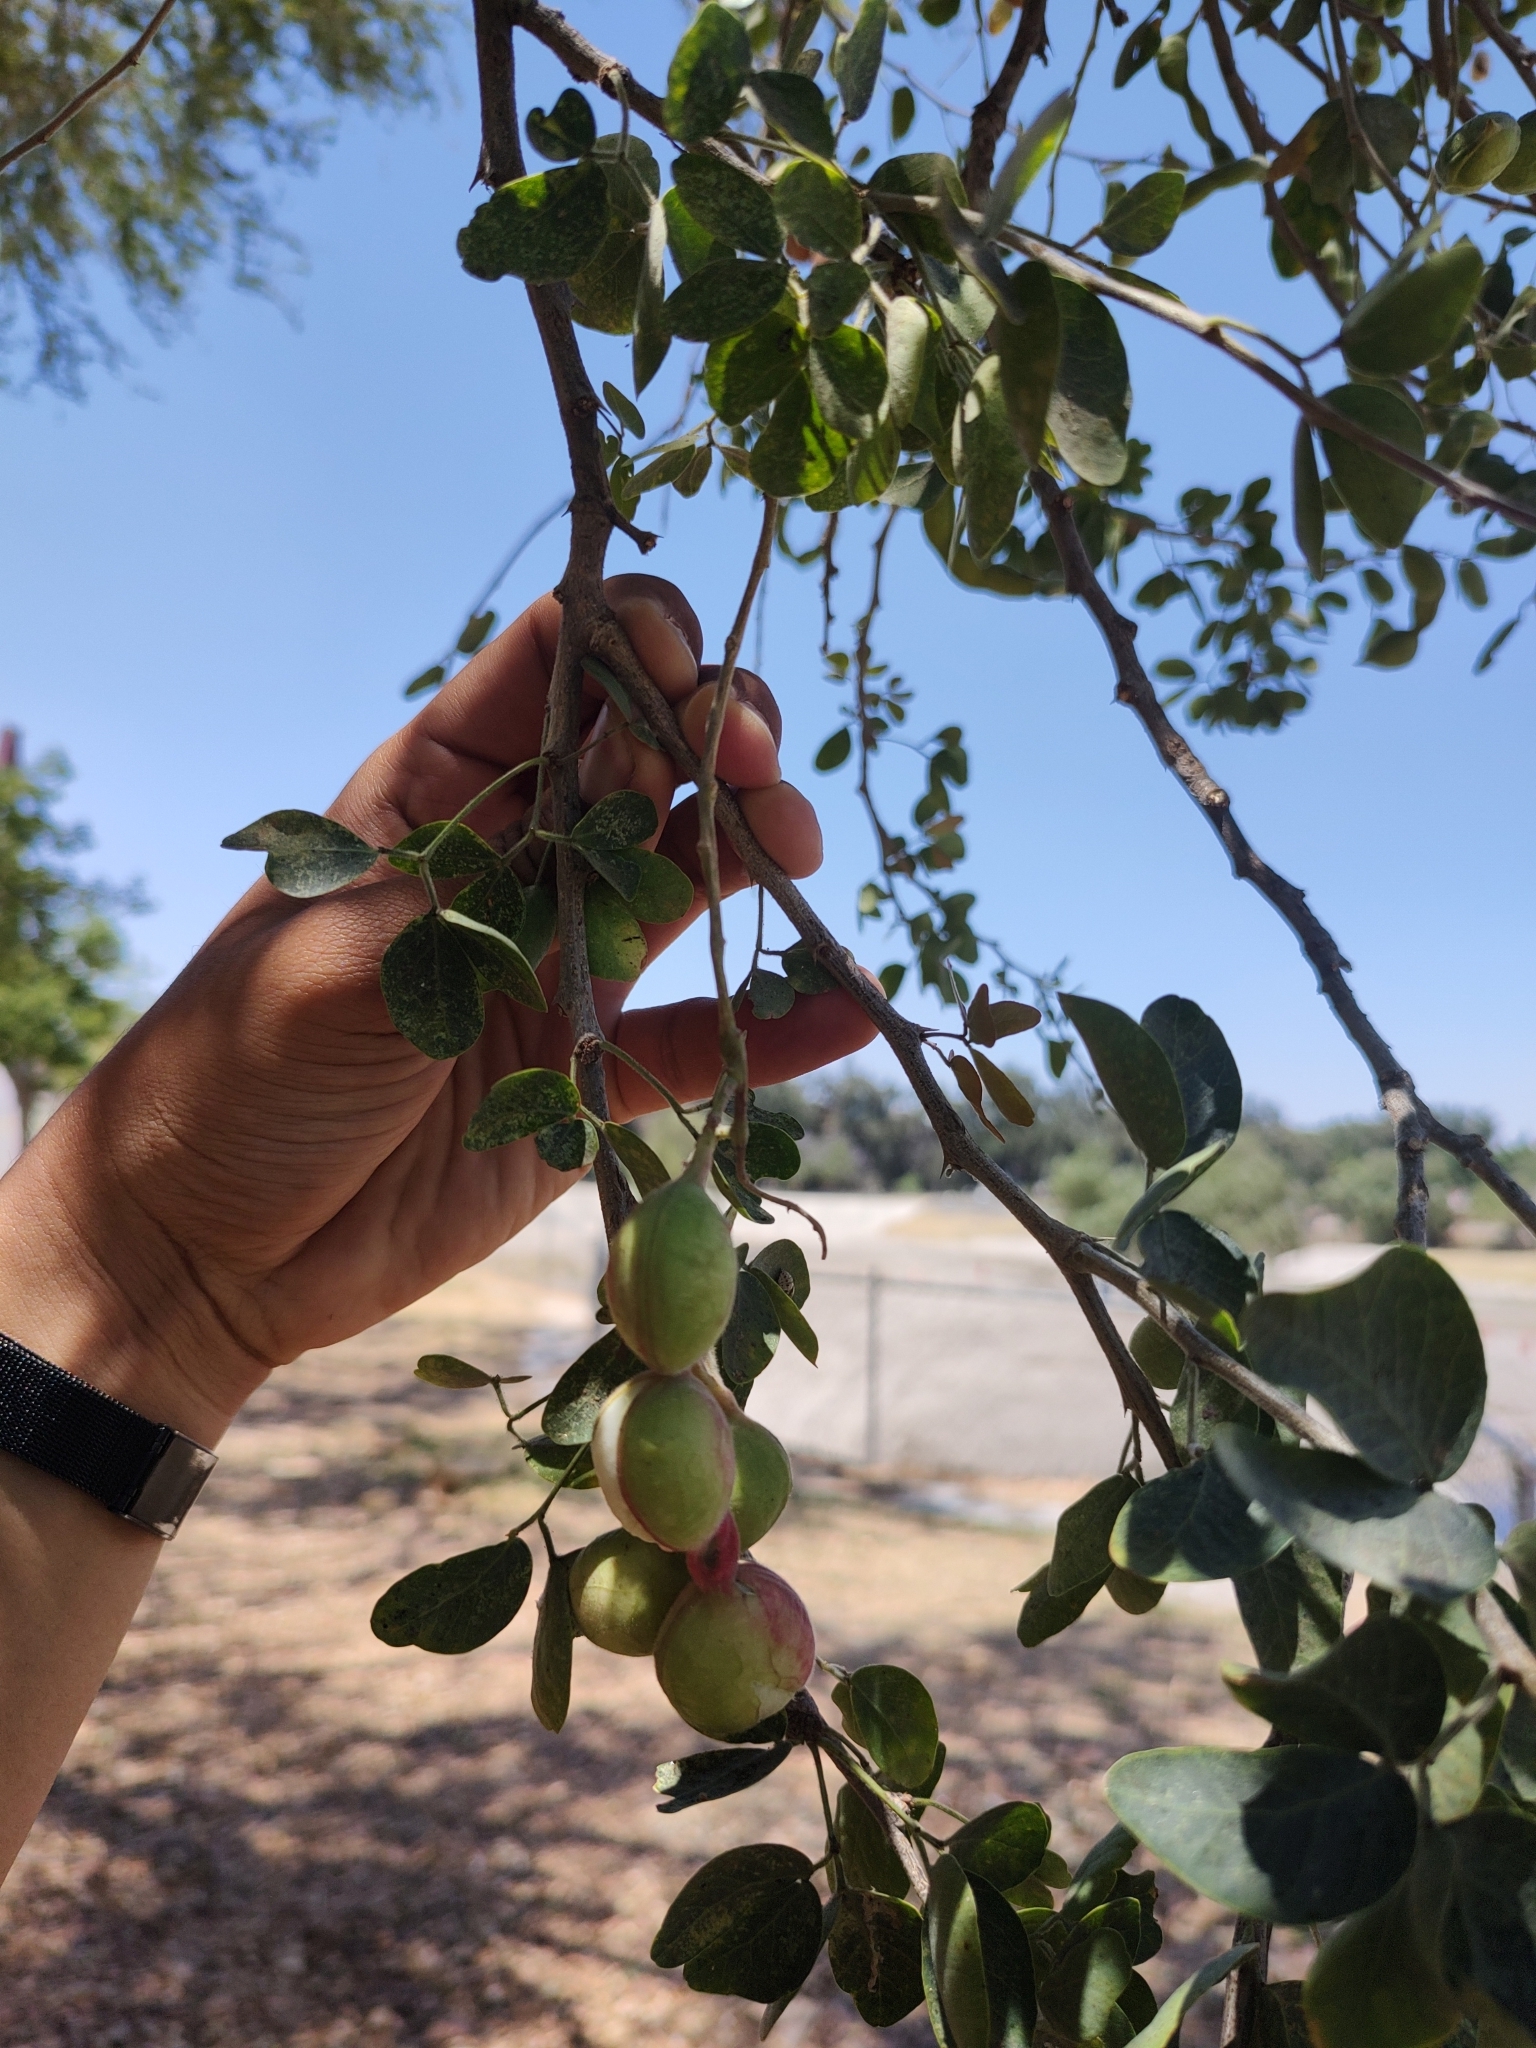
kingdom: Plantae
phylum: Tracheophyta
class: Magnoliopsida
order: Fabales
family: Fabaceae
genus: Pithecellobium
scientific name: Pithecellobium dulce
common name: Monkeypod
